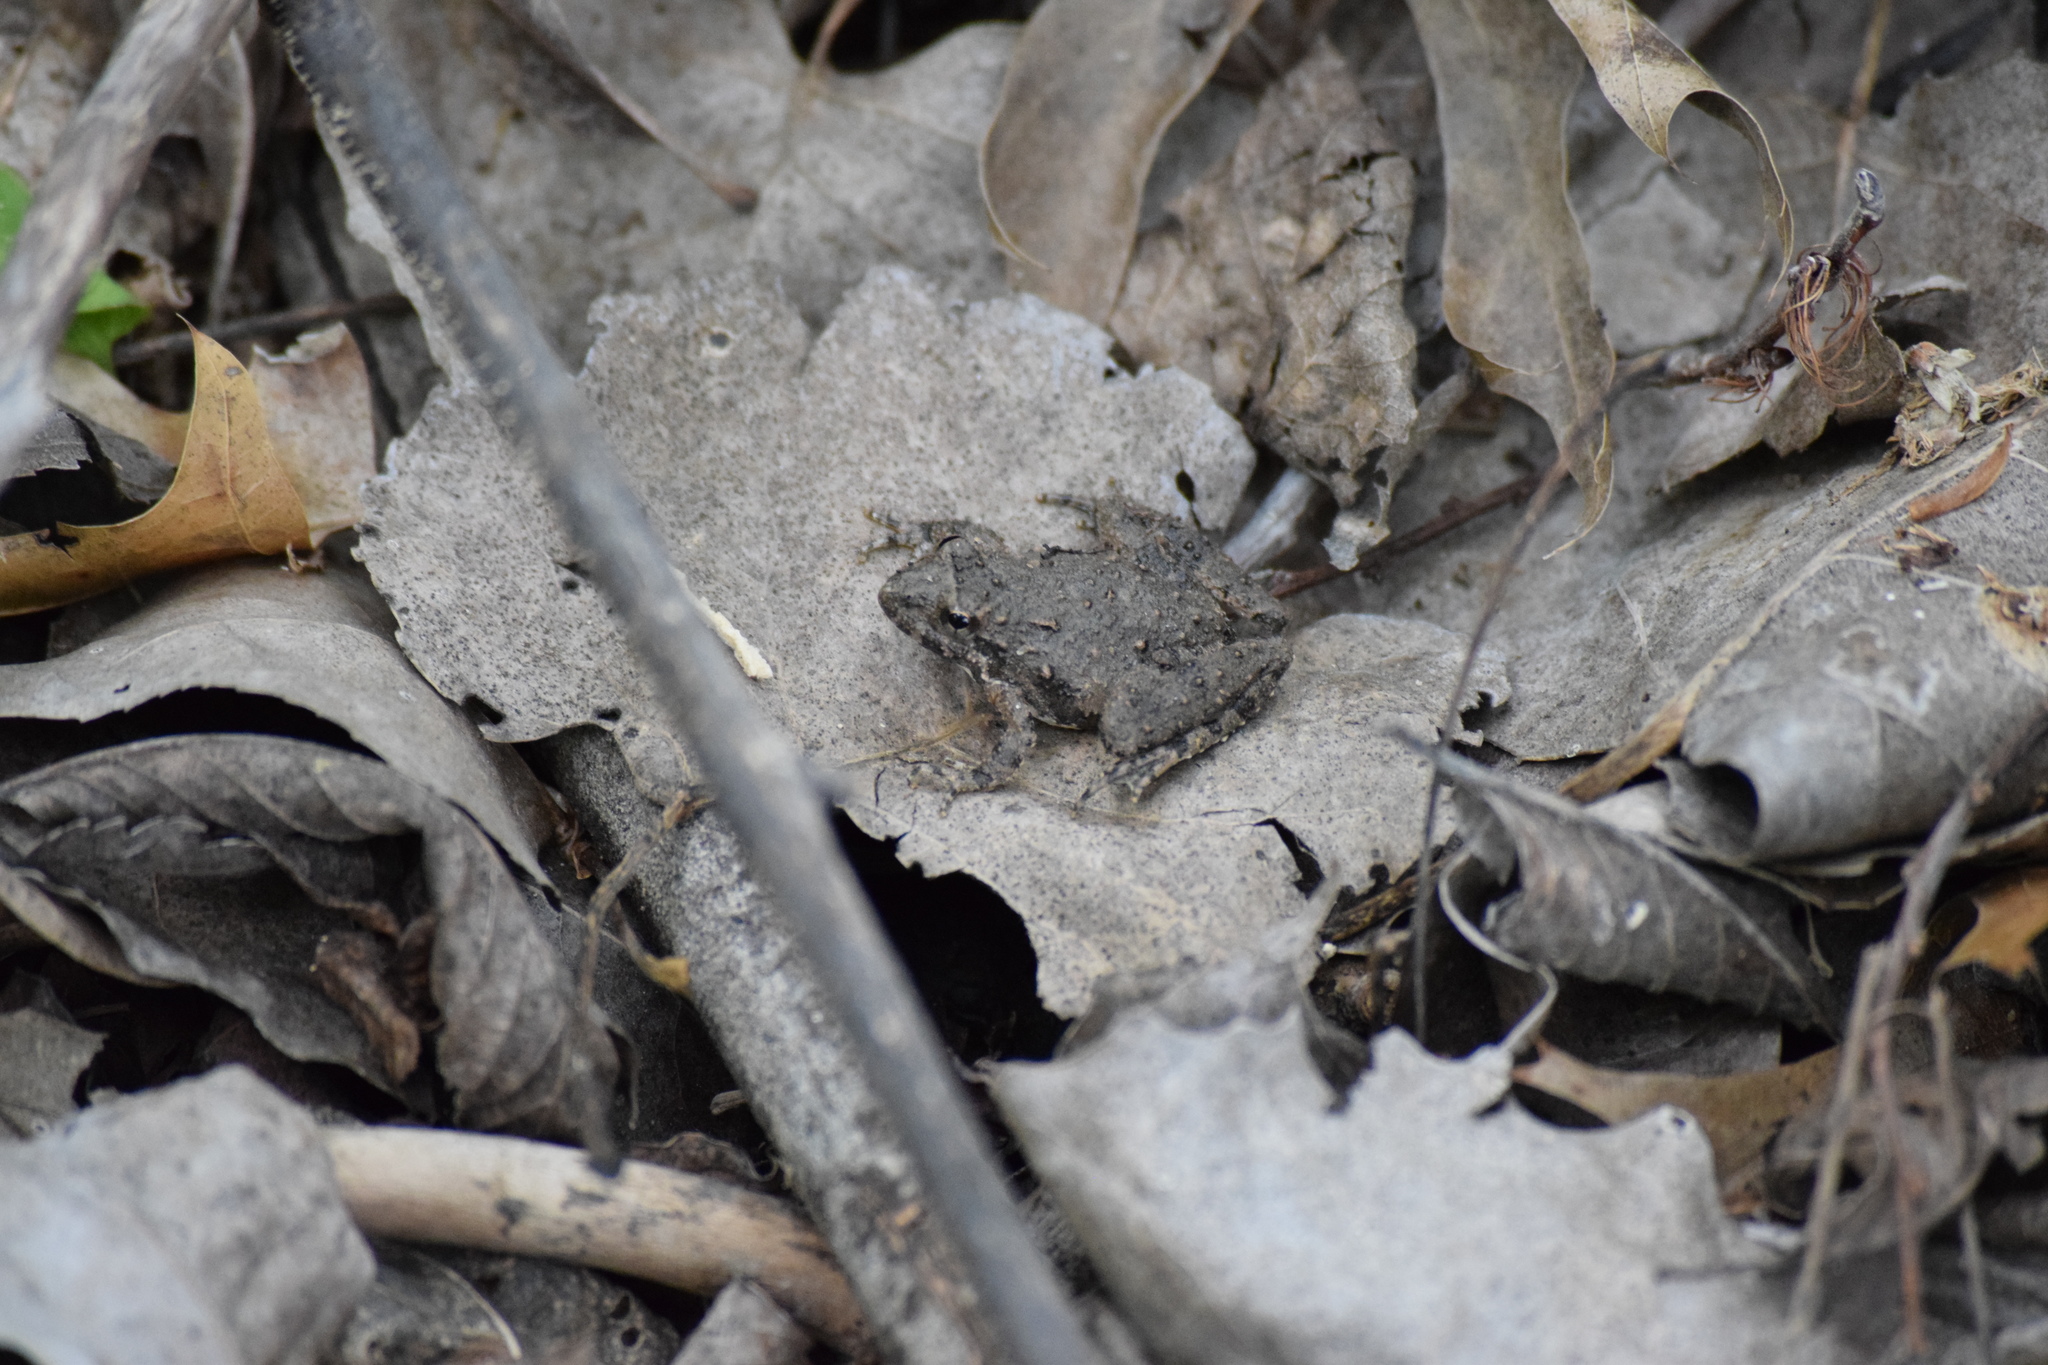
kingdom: Animalia
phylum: Chordata
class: Amphibia
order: Anura
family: Hylidae
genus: Acris
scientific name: Acris blanchardi
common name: Blanchard's cricket frog
